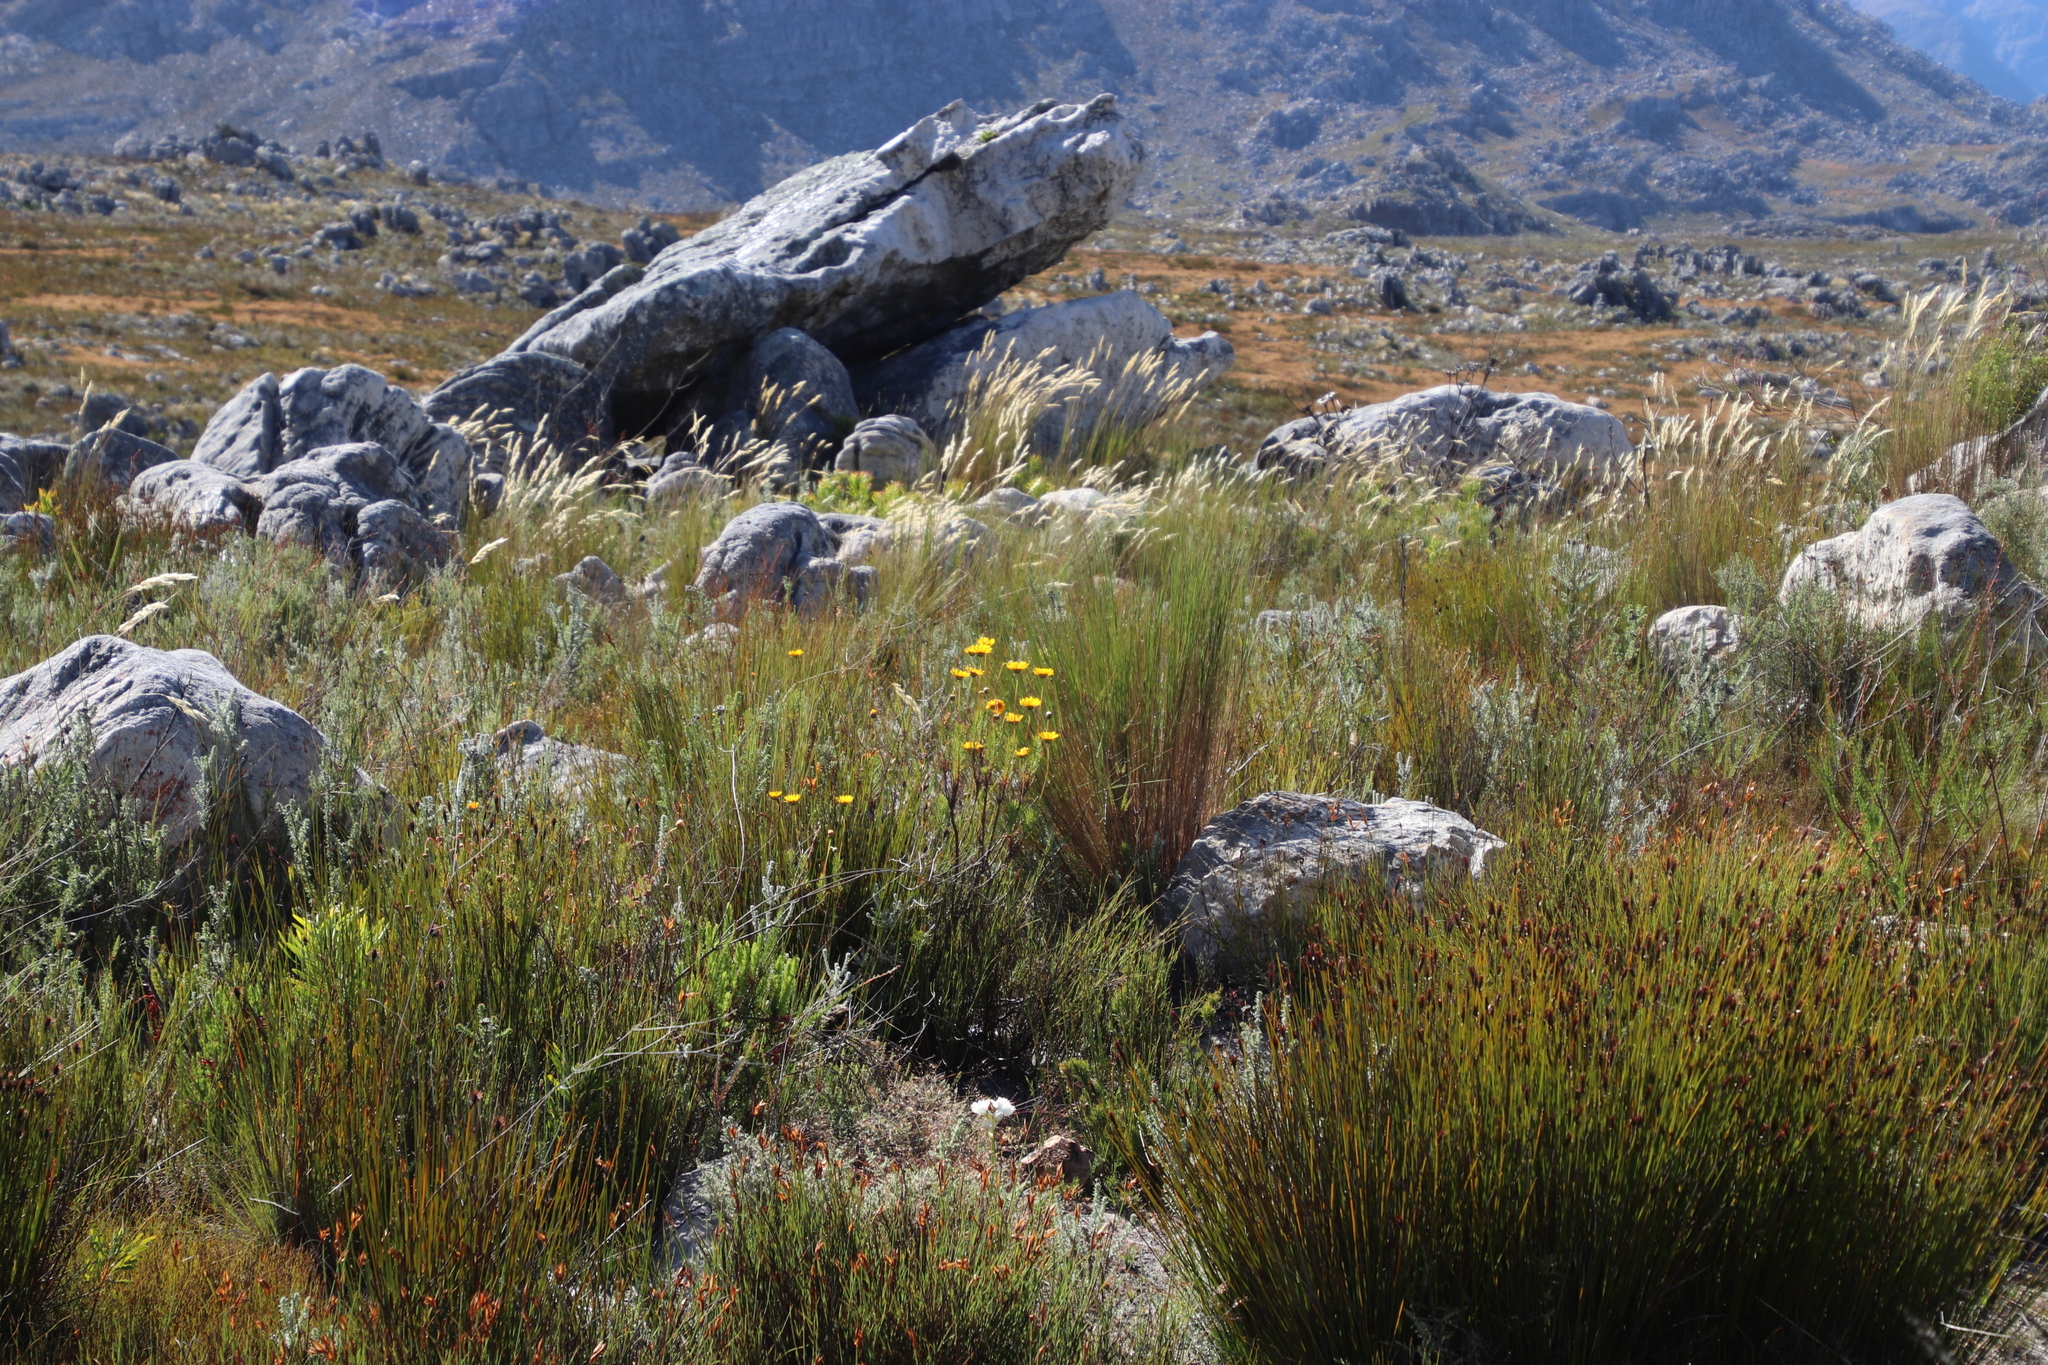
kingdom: Plantae
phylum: Tracheophyta
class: Magnoliopsida
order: Asterales
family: Asteraceae
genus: Euryops
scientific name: Euryops abrotanifolius
